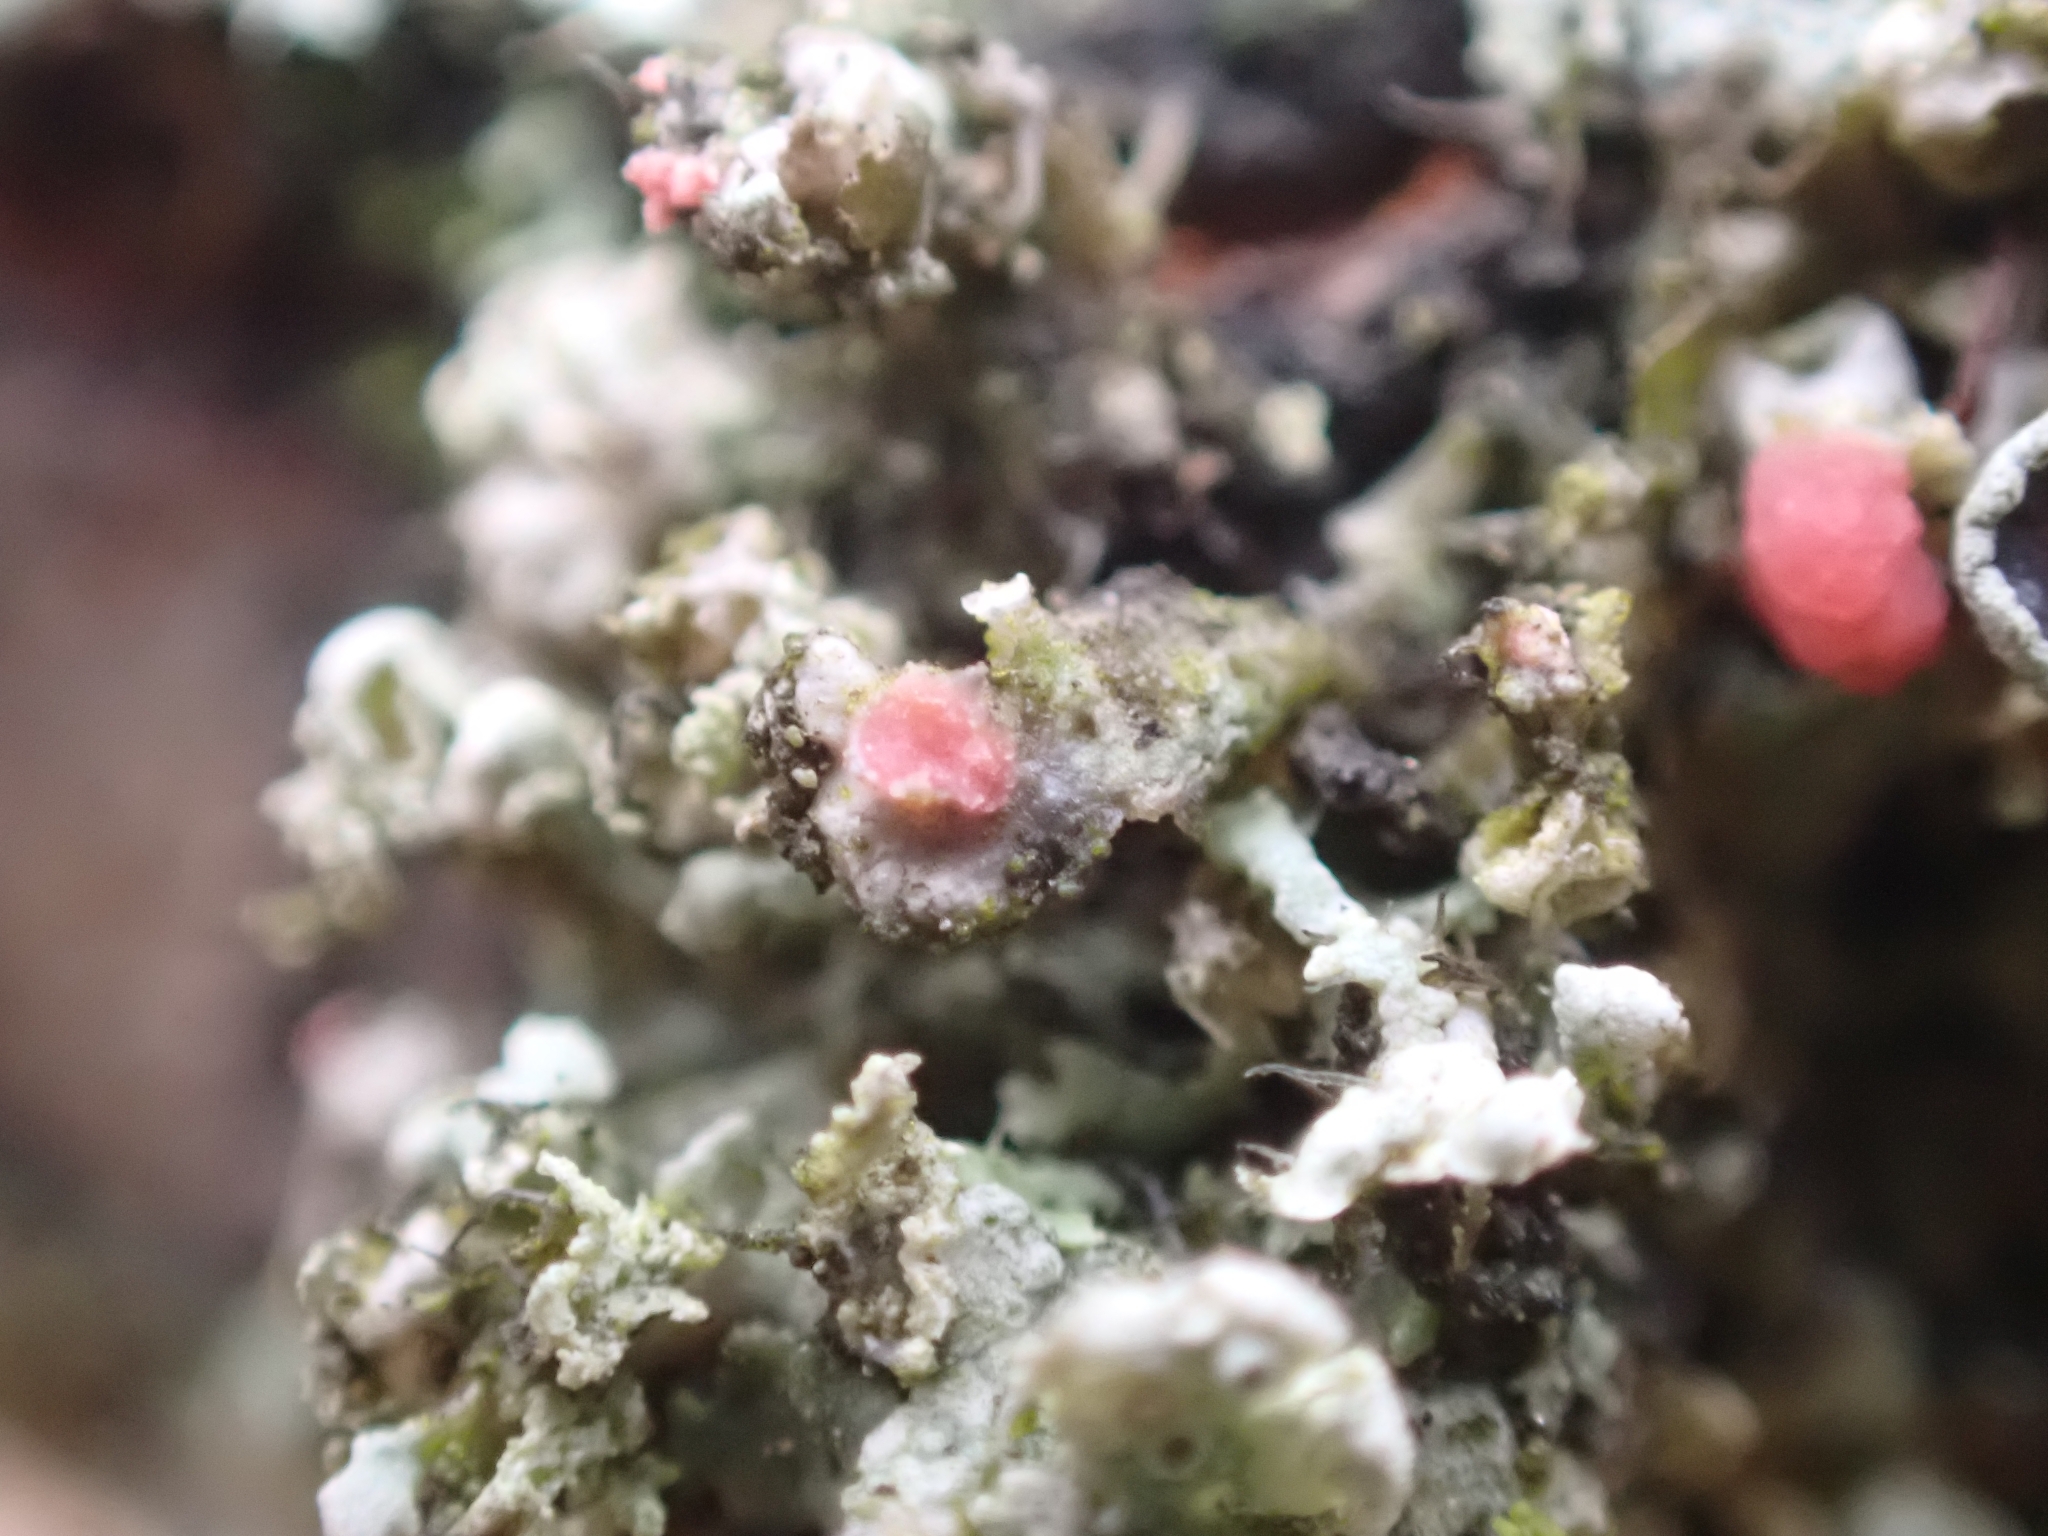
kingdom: Fungi
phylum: Ascomycota
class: Sordariomycetes
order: Hypocreales
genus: Illosporiopsis
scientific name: Illosporiopsis christiansenii
